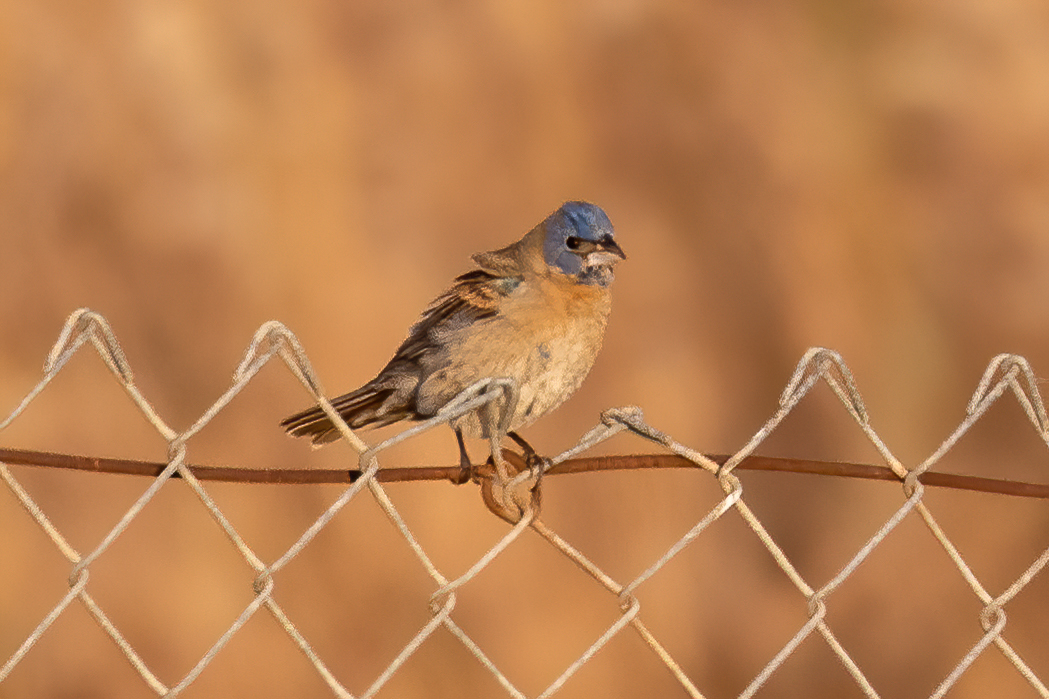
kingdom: Animalia
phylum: Chordata
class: Aves
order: Passeriformes
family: Cardinalidae
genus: Passerina
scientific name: Passerina caerulea
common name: Blue grosbeak
